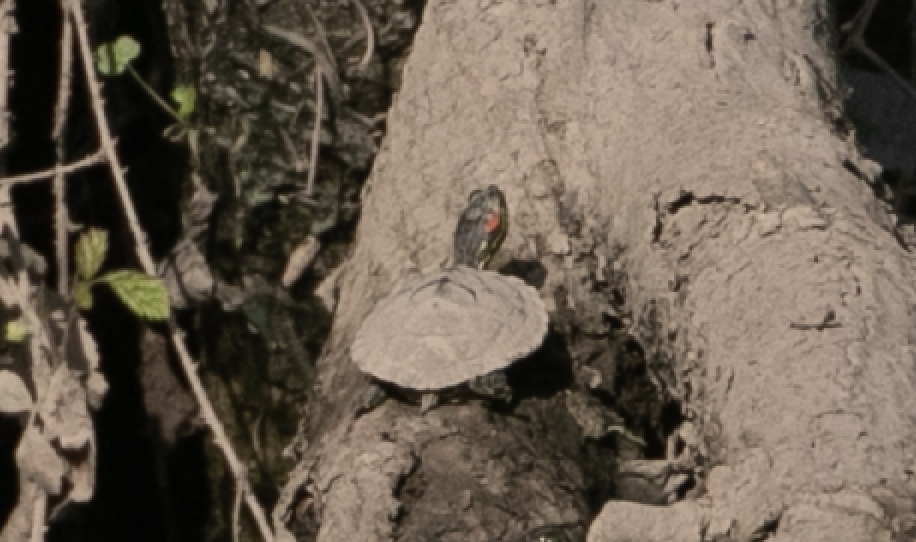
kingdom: Animalia
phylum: Chordata
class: Testudines
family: Emydidae
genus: Trachemys
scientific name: Trachemys scripta
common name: Slider
